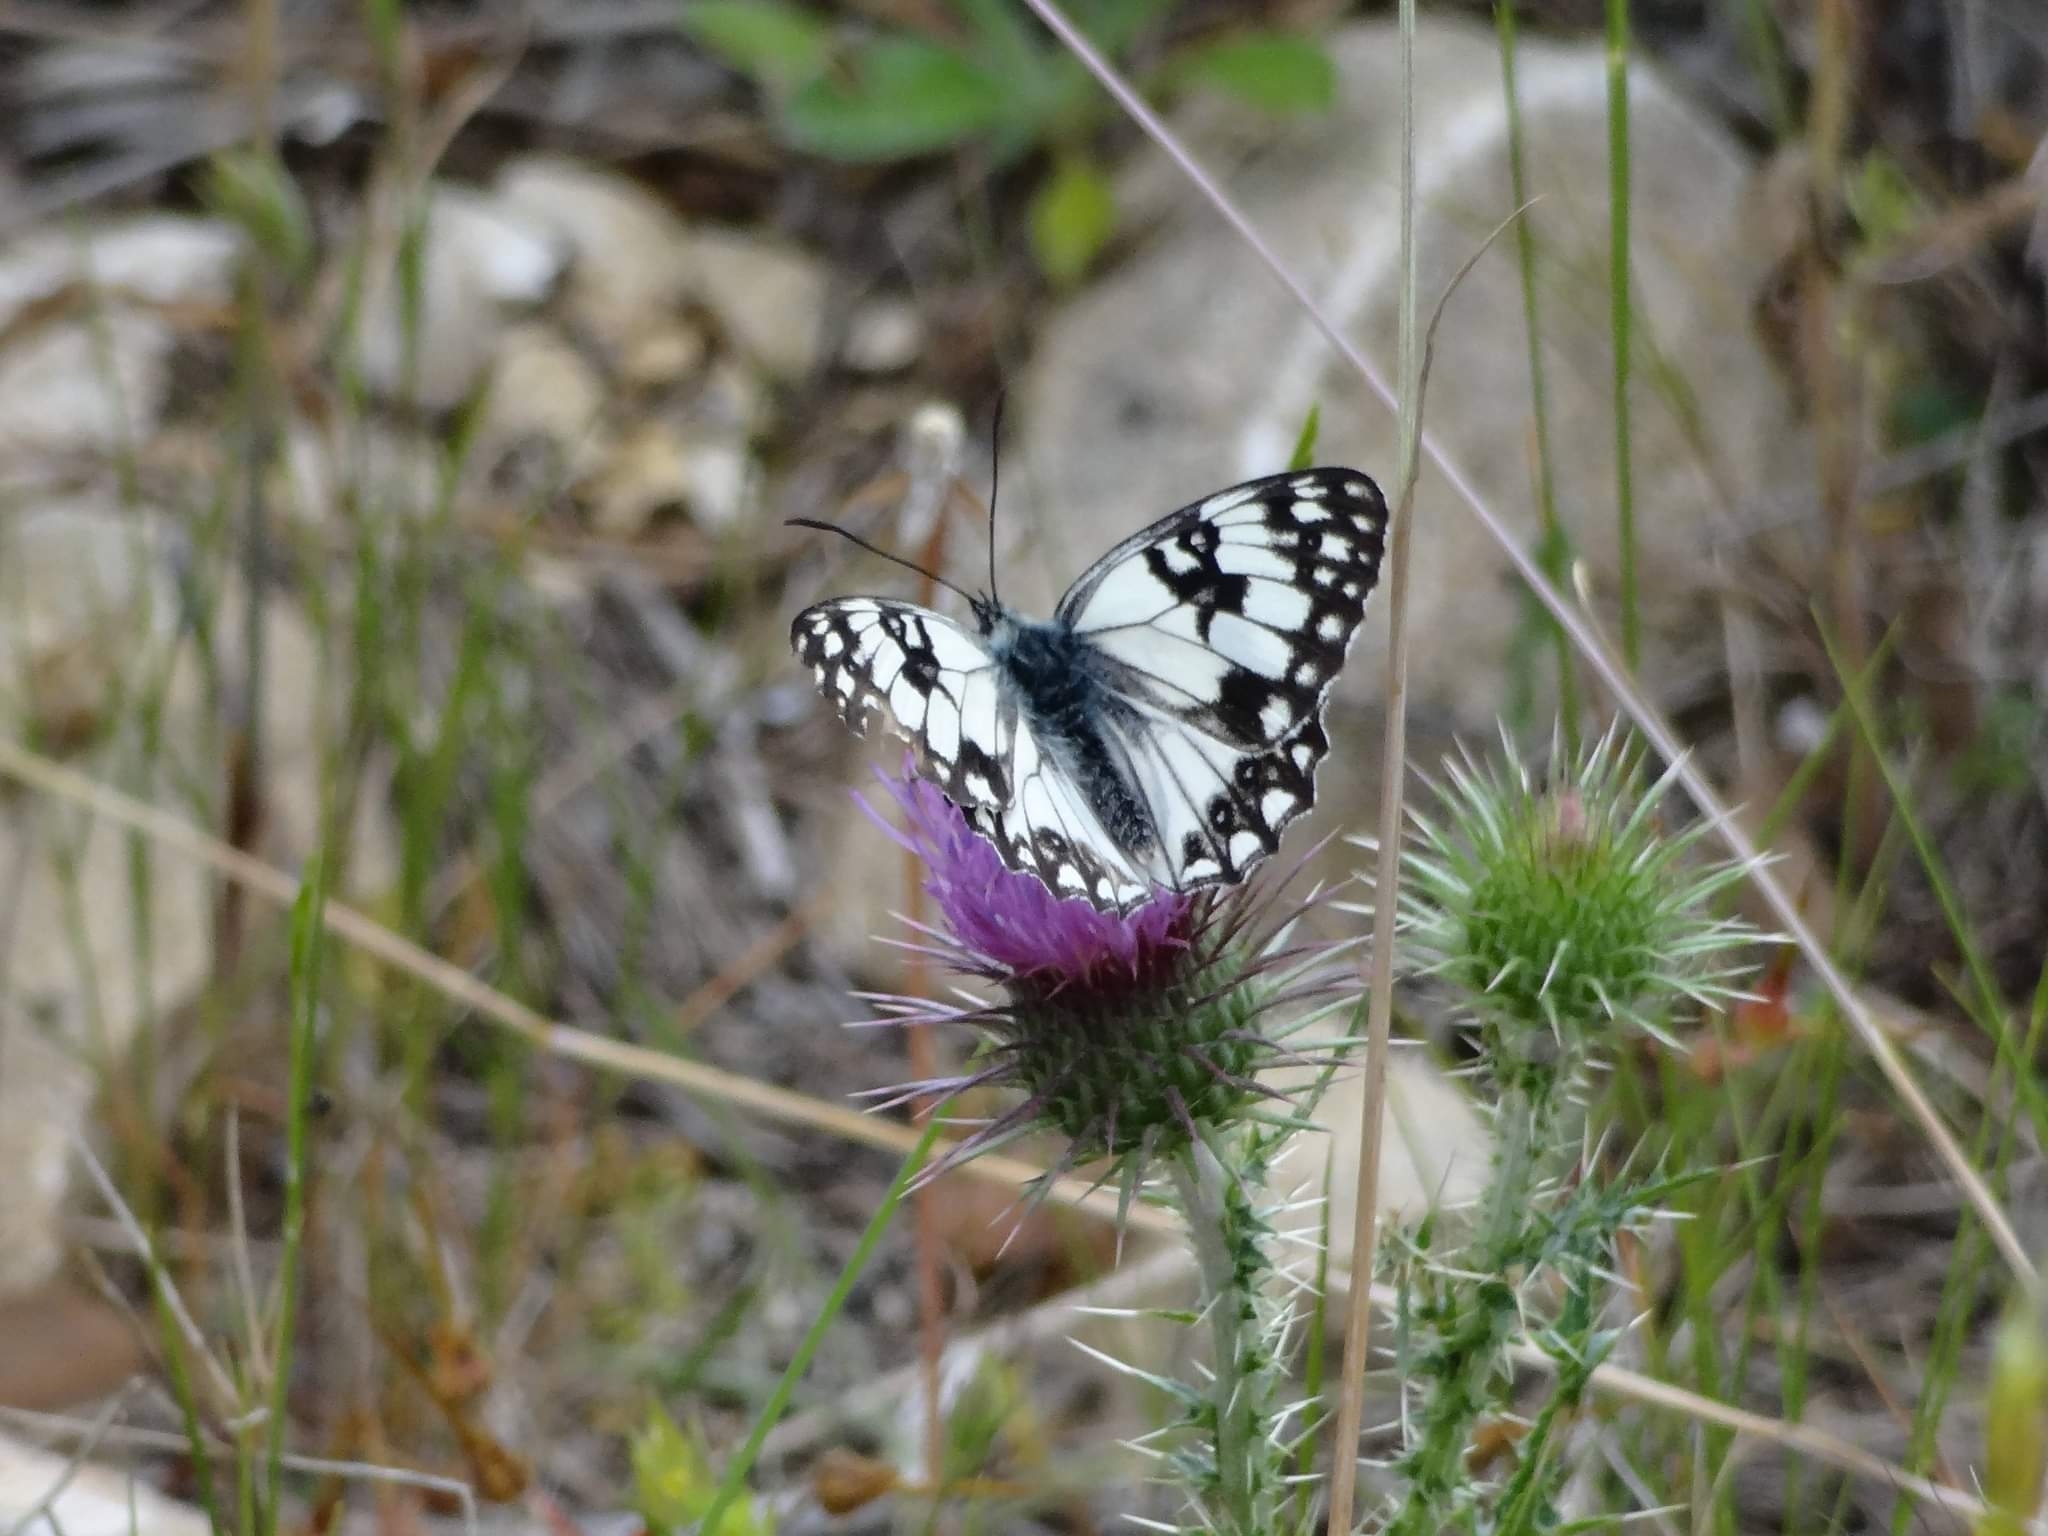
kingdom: Animalia
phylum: Arthropoda
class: Insecta
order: Lepidoptera
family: Nymphalidae
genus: Melanargia
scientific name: Melanargia occitanica
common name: Western marbled white
